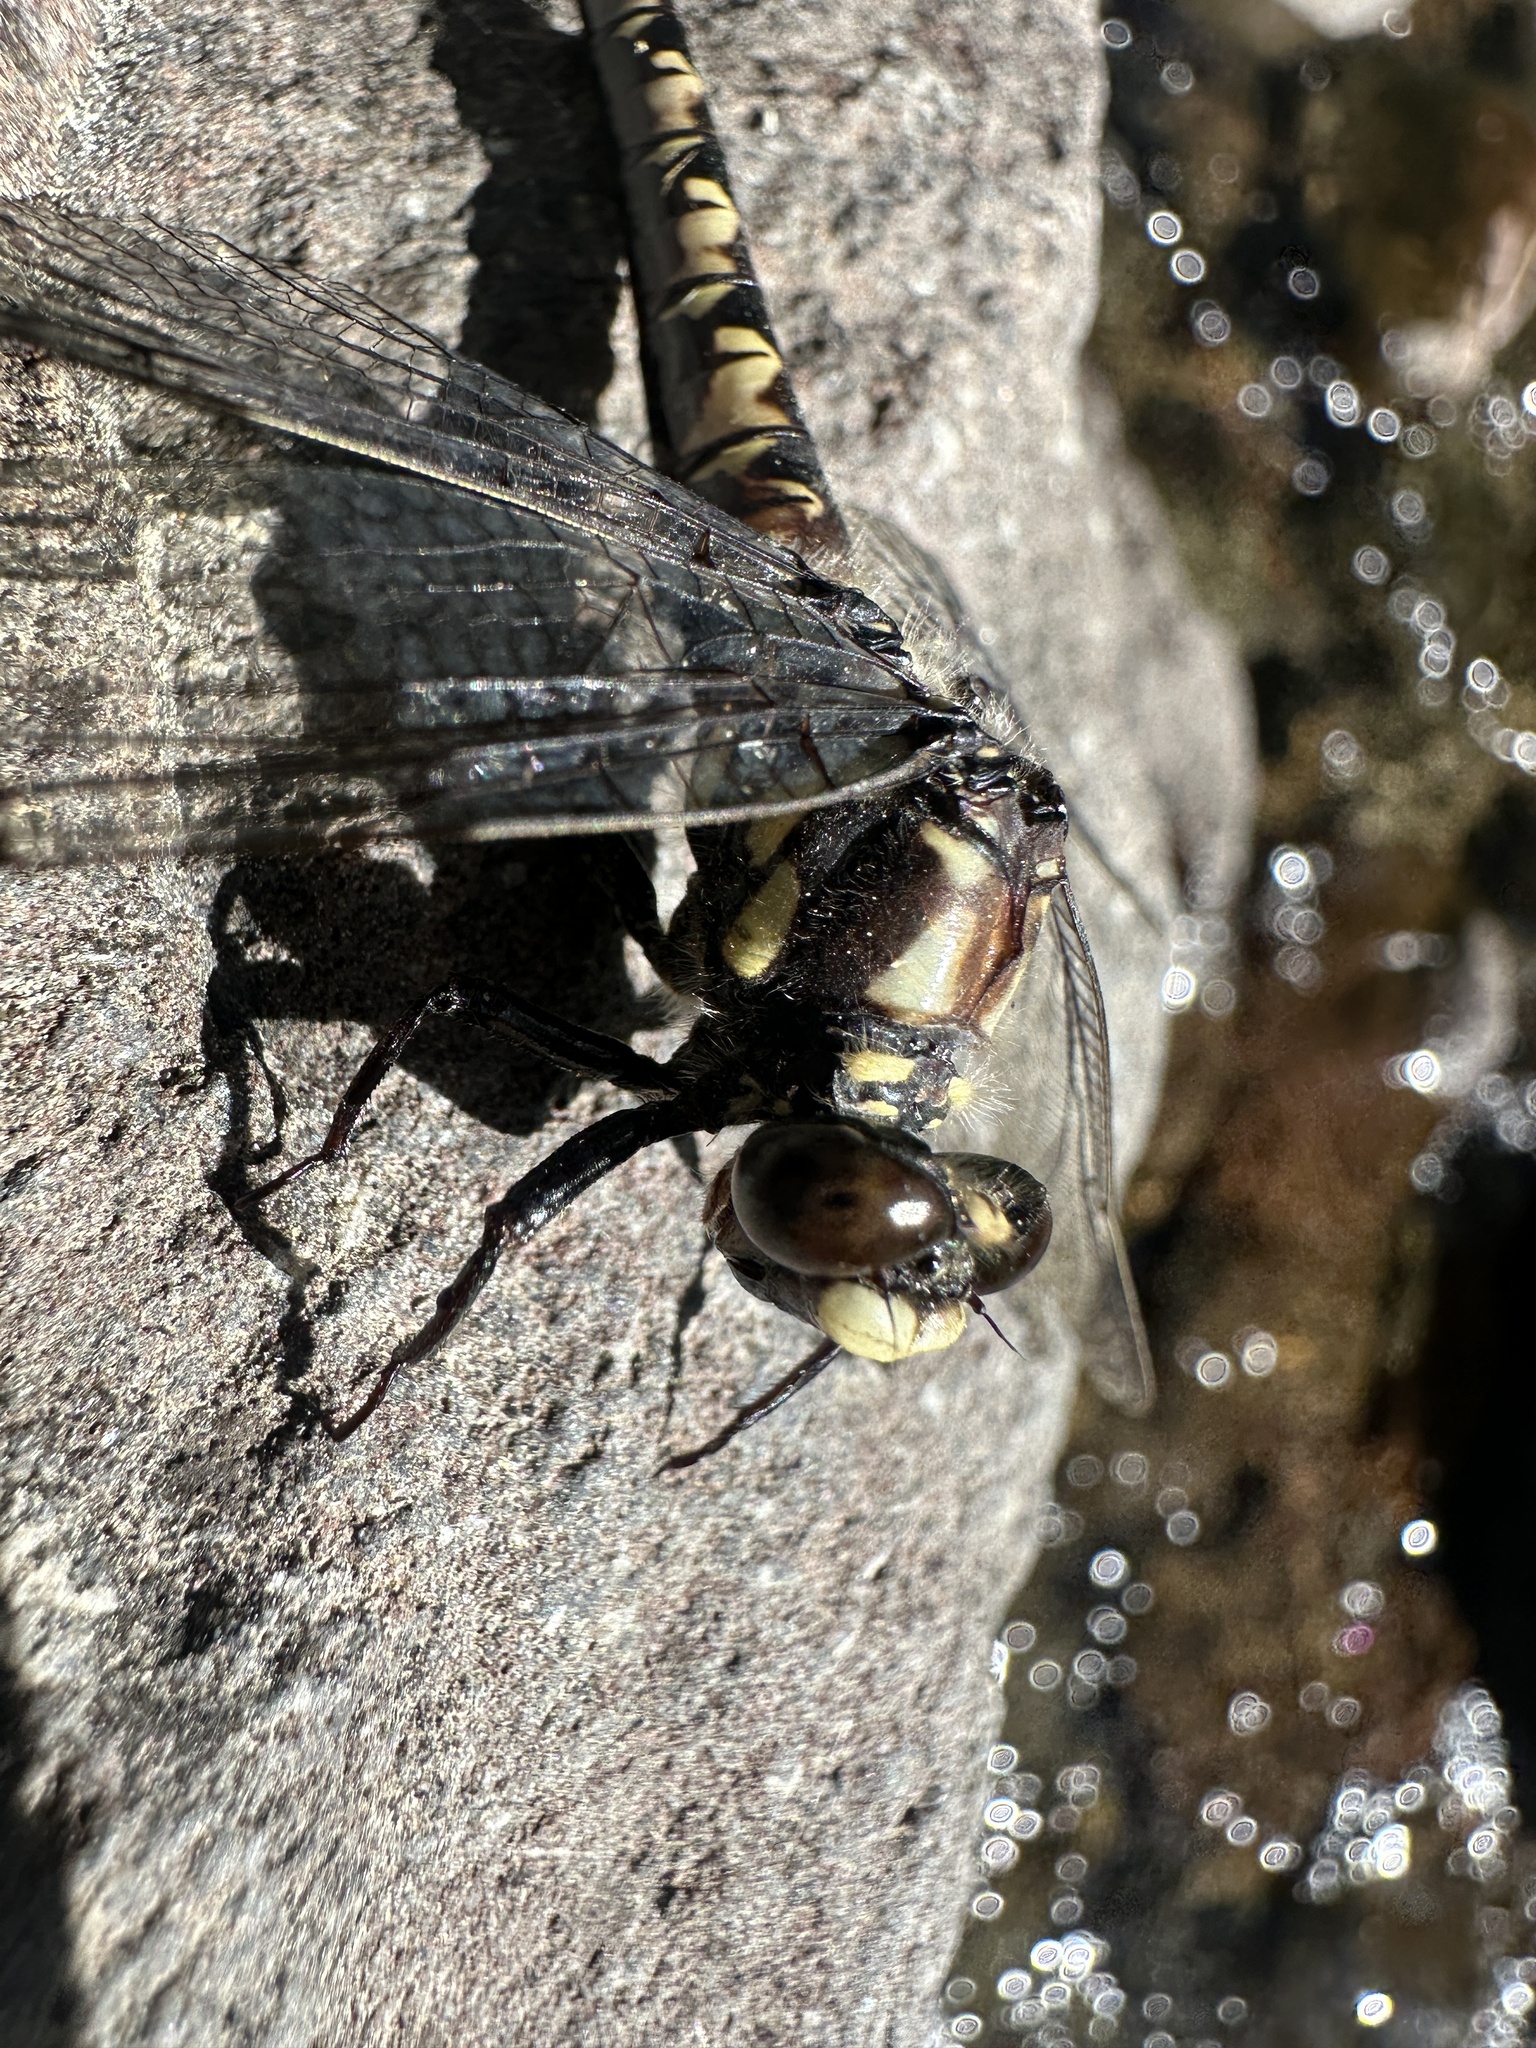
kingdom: Animalia
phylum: Arthropoda
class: Insecta
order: Odonata
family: Petaluridae
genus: Tanypteryx
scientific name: Tanypteryx hageni
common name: Black petaltail
